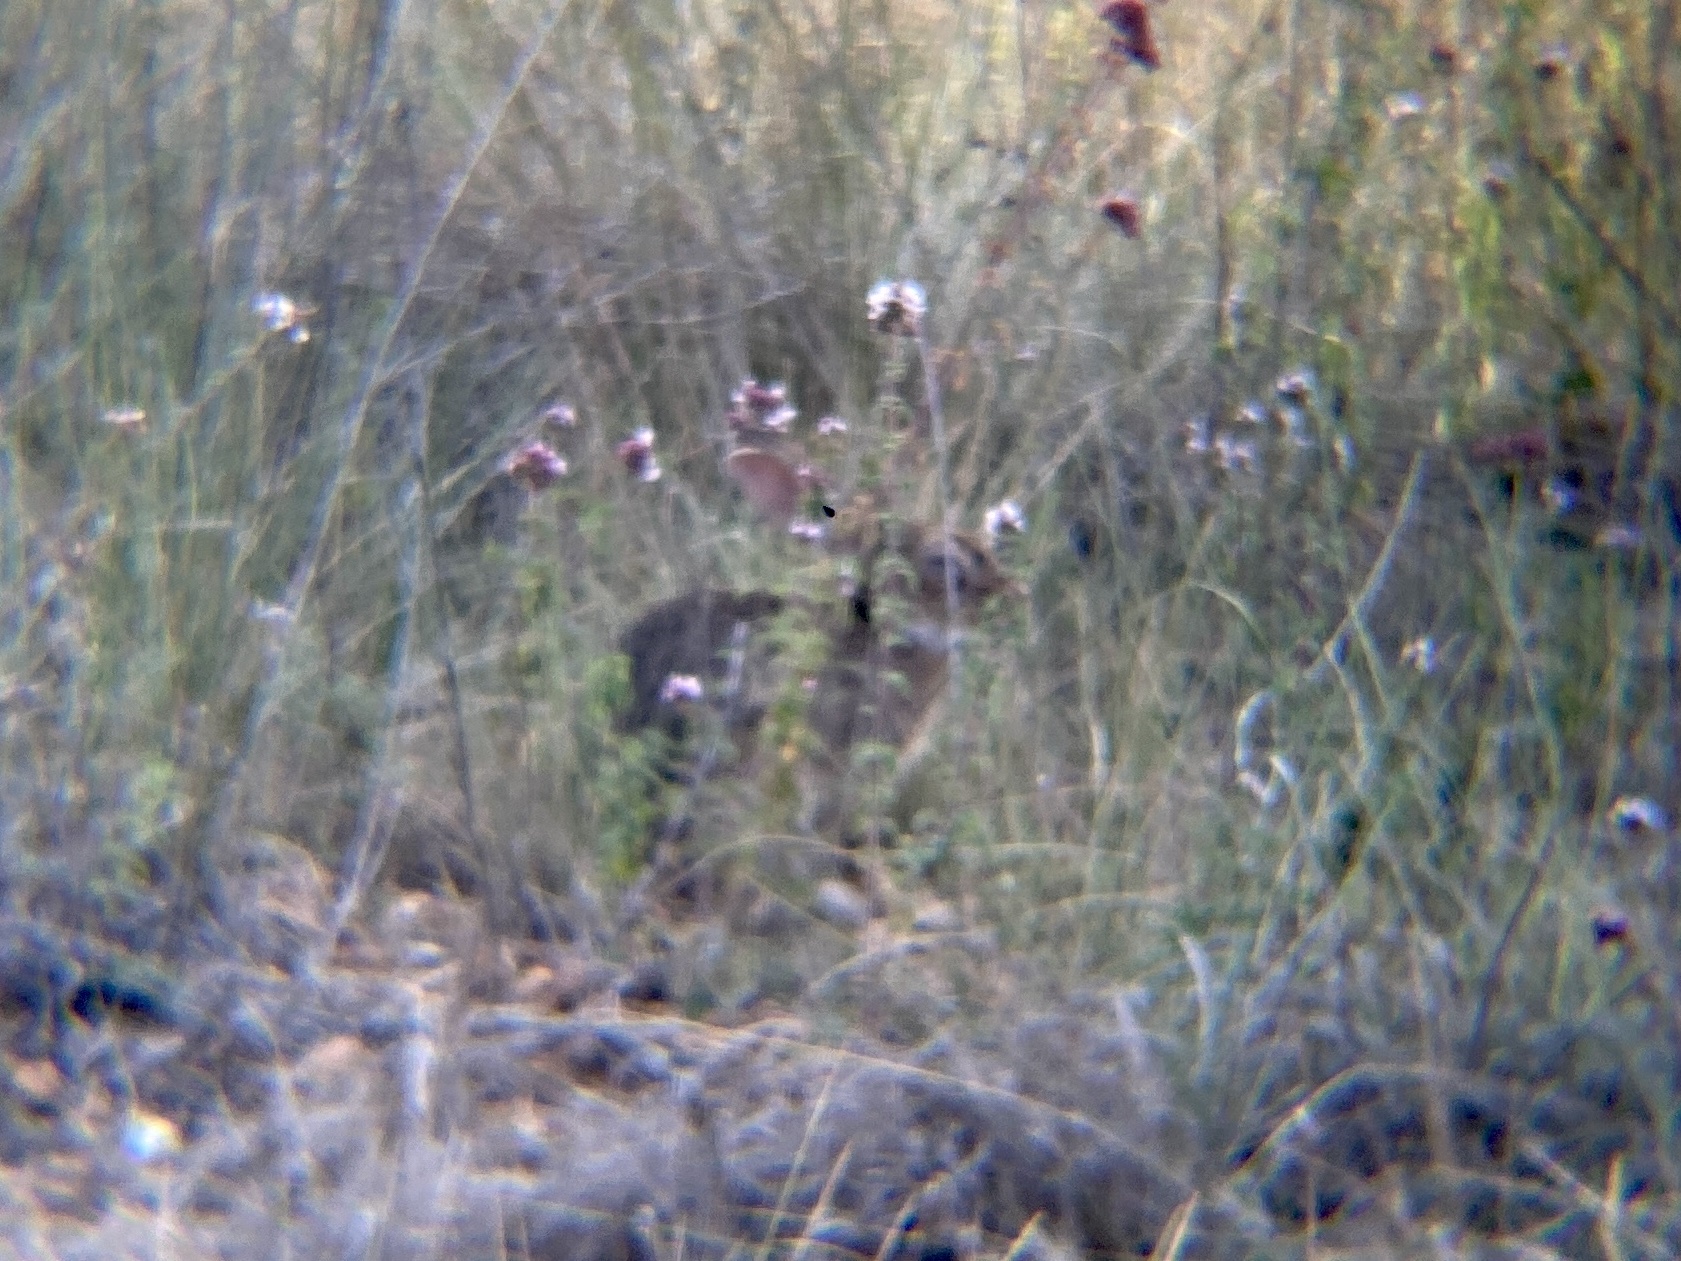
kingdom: Animalia
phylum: Chordata
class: Mammalia
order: Lagomorpha
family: Leporidae
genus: Oryctolagus
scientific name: Oryctolagus cuniculus
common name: European rabbit
